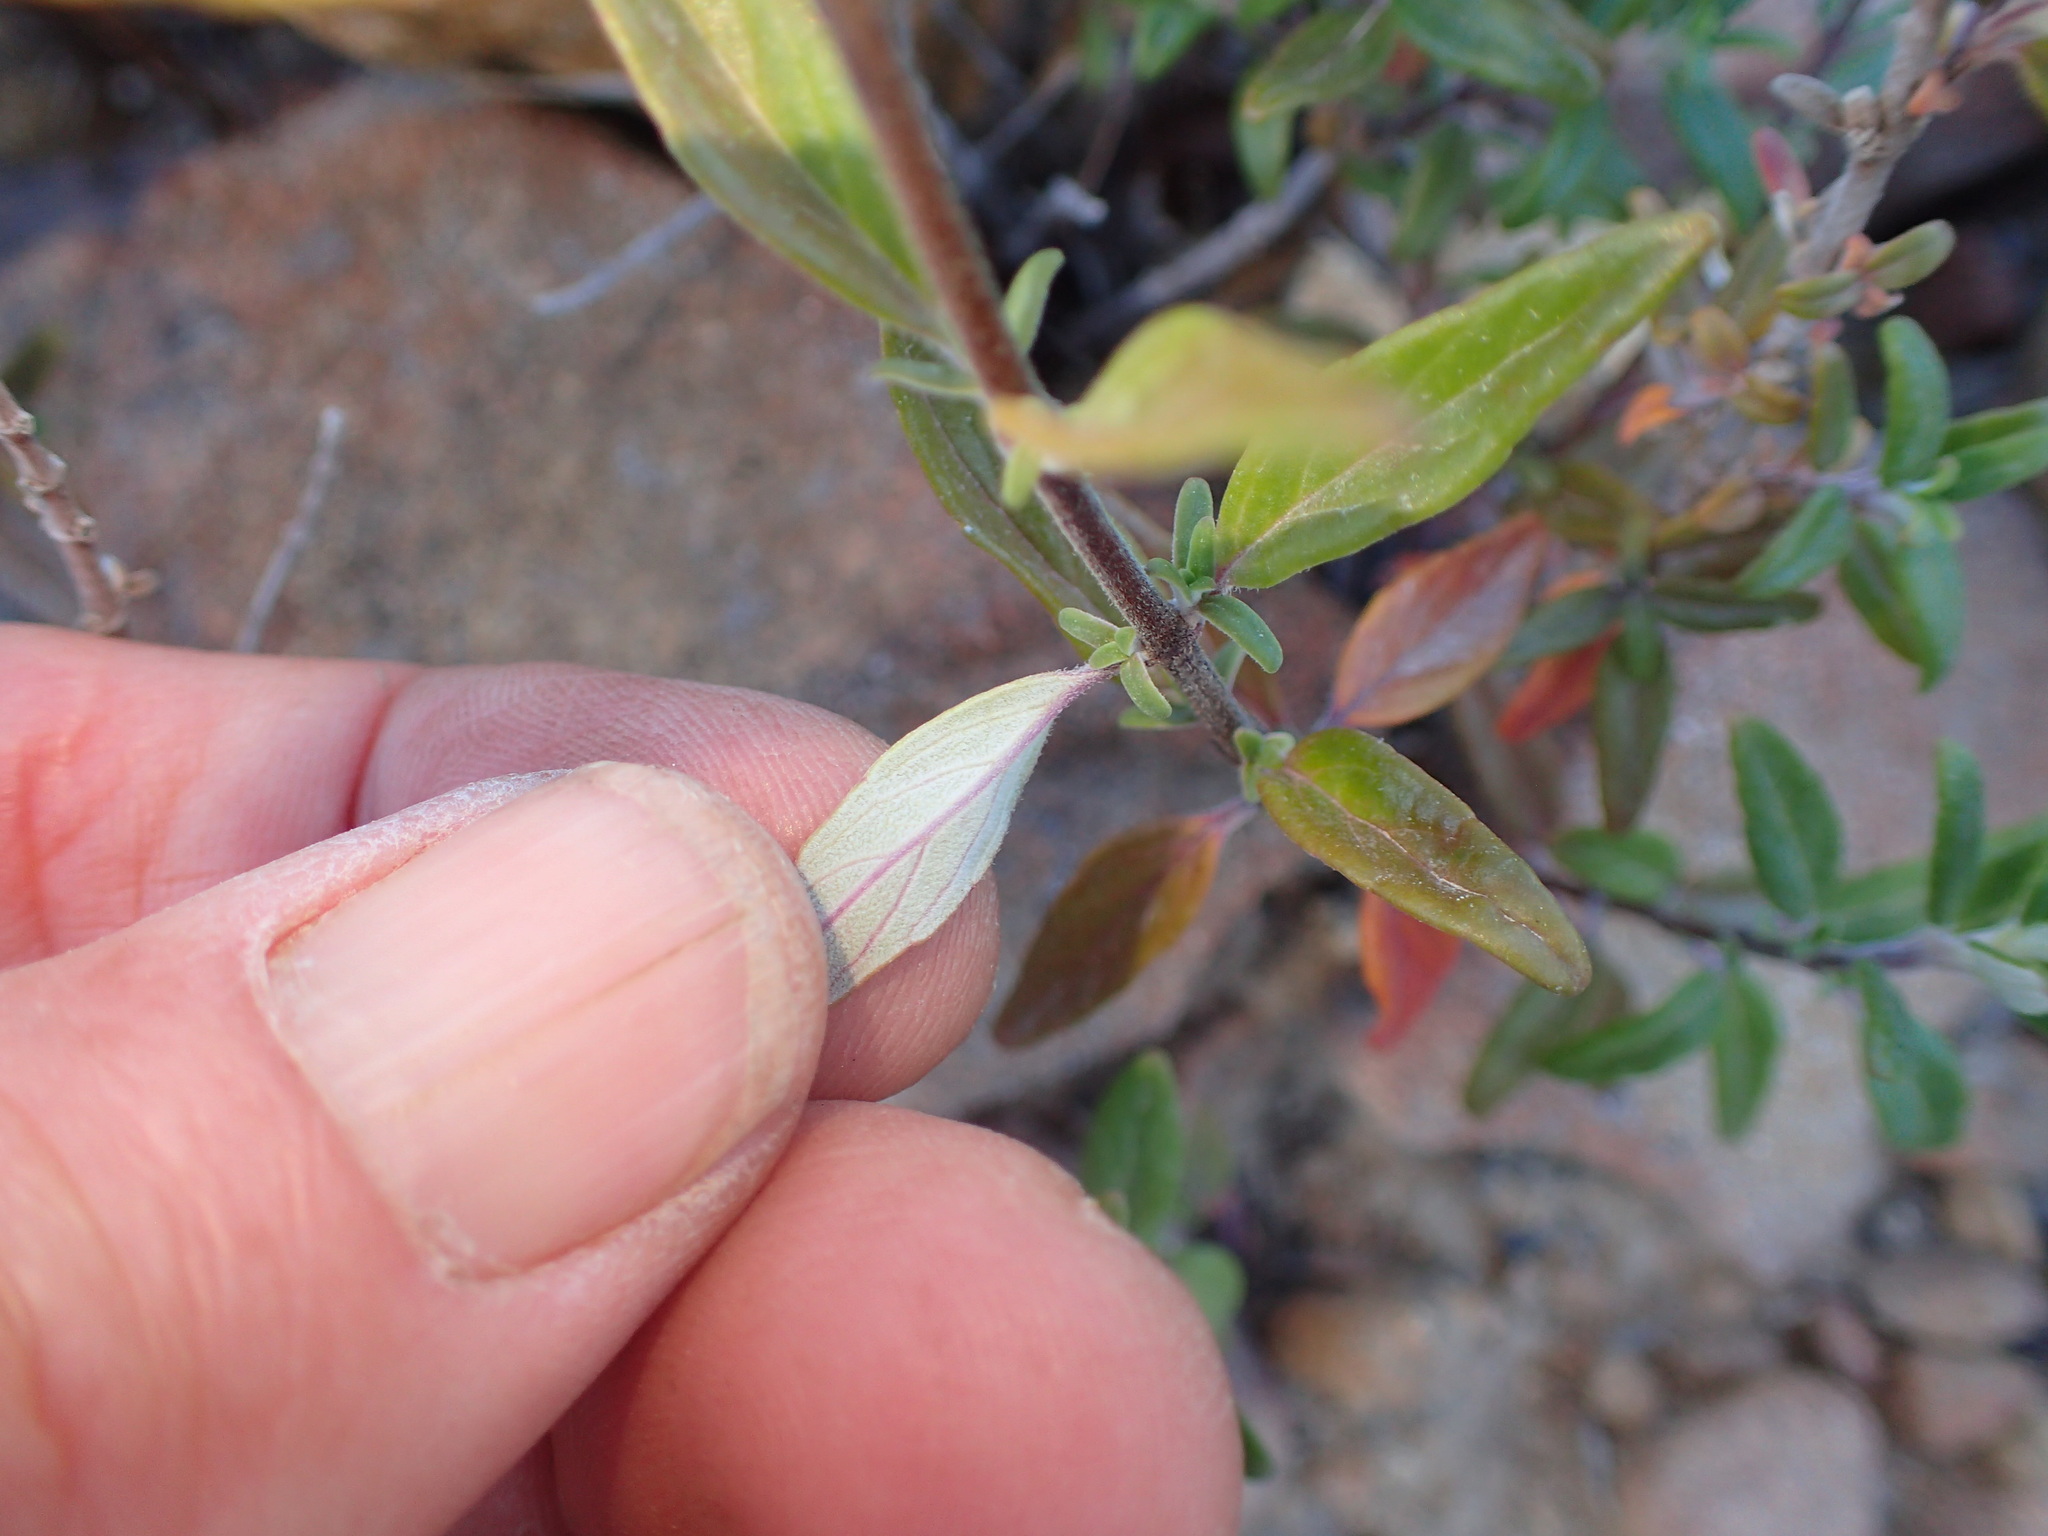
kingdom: Plantae
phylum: Tracheophyta
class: Magnoliopsida
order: Lamiales
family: Lamiaceae
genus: Monardella
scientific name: Monardella hypoleuca
